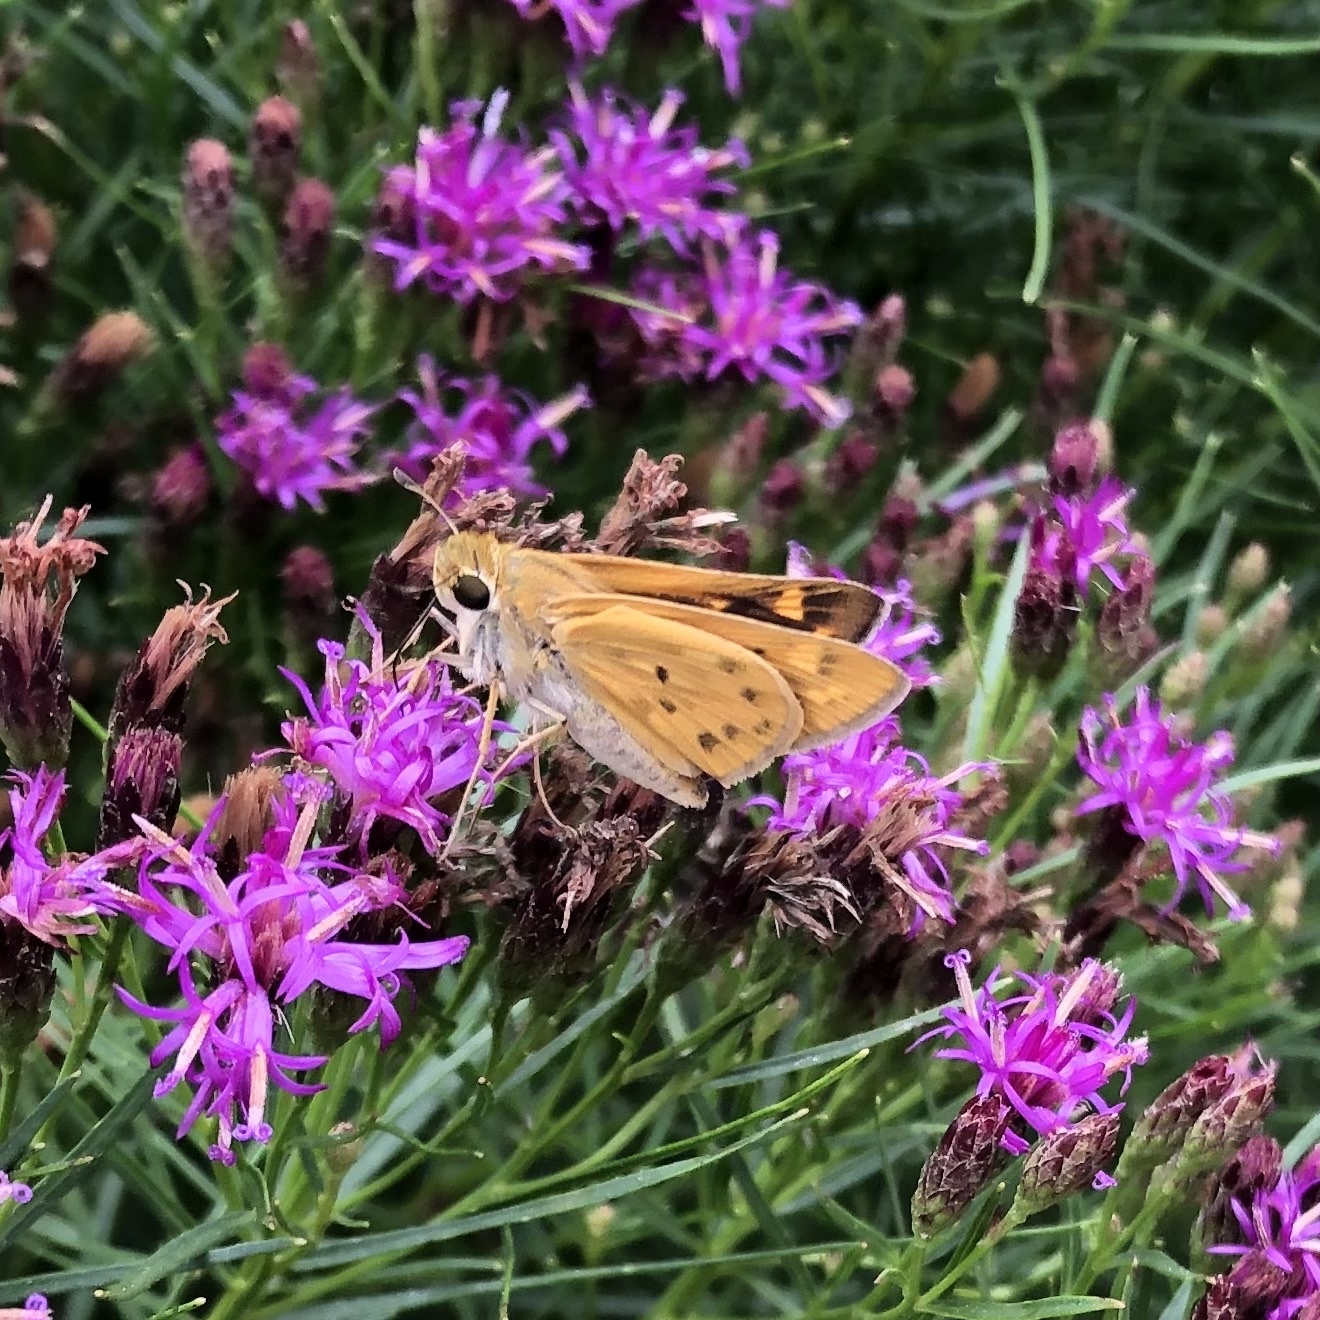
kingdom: Animalia
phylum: Arthropoda
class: Insecta
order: Lepidoptera
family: Hesperiidae
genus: Hylephila
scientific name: Hylephila phyleus
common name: Fiery skipper
